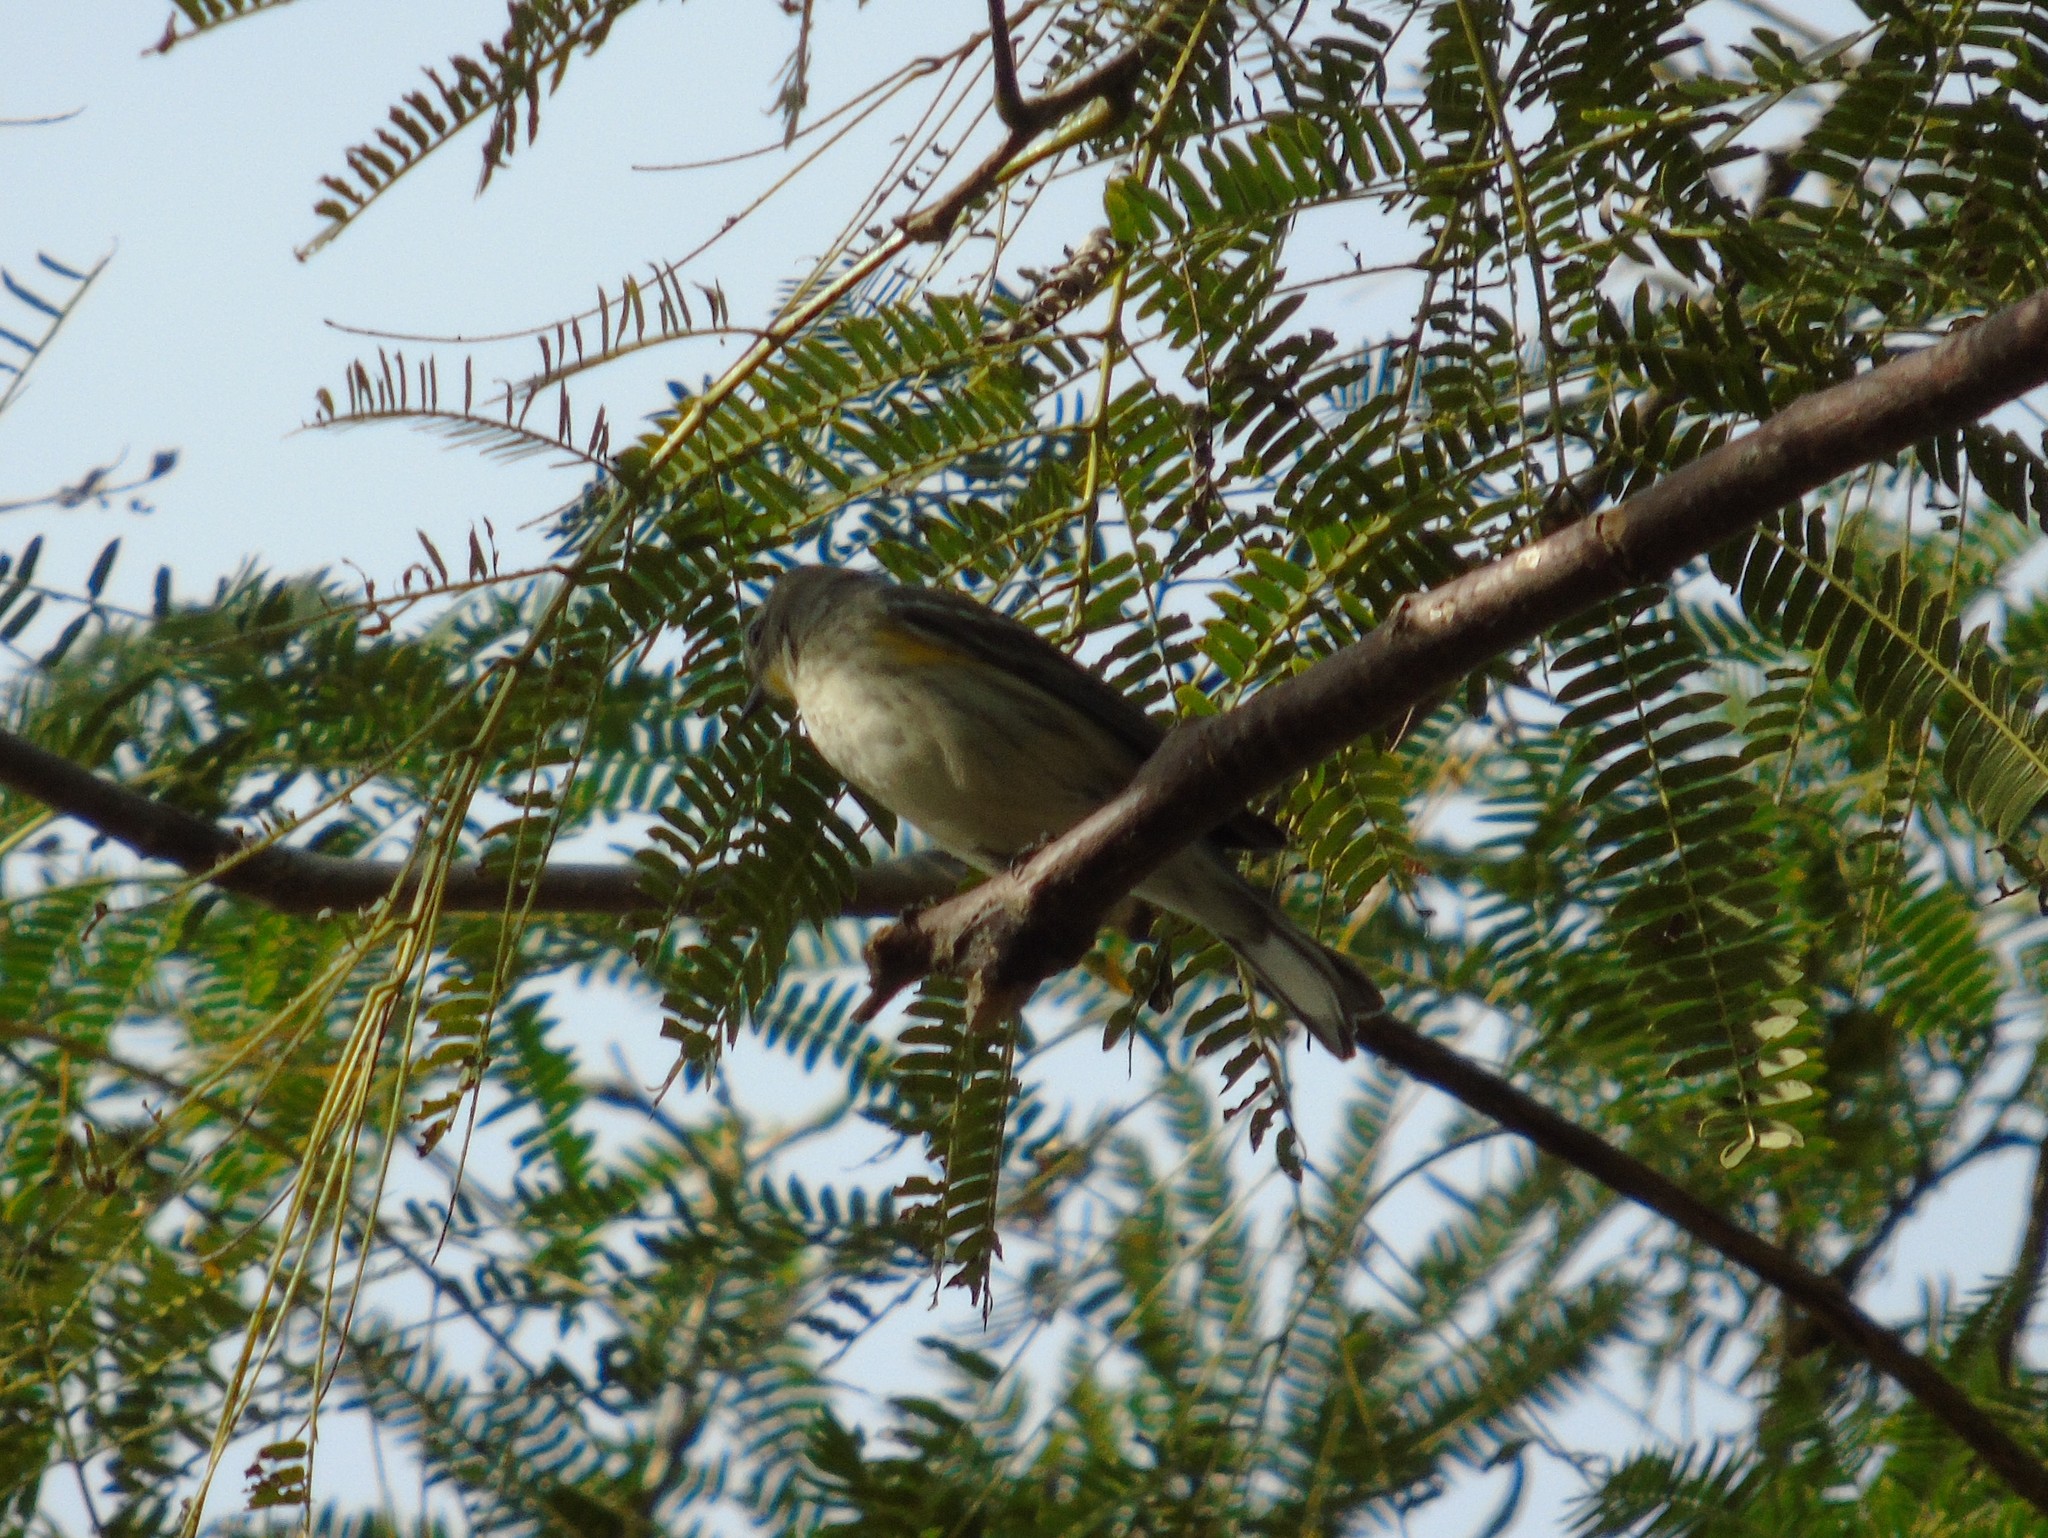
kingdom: Animalia
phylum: Chordata
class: Aves
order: Passeriformes
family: Parulidae
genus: Setophaga
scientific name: Setophaga coronata
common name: Myrtle warbler
